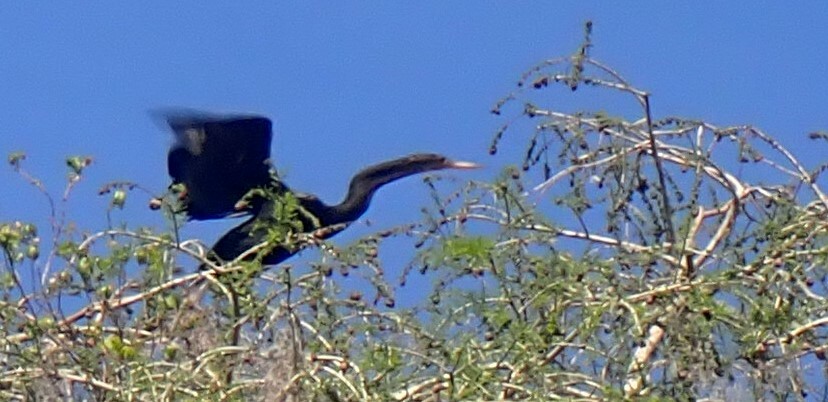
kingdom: Animalia
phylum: Chordata
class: Aves
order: Suliformes
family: Anhingidae
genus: Anhinga
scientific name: Anhinga anhinga
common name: Anhinga
